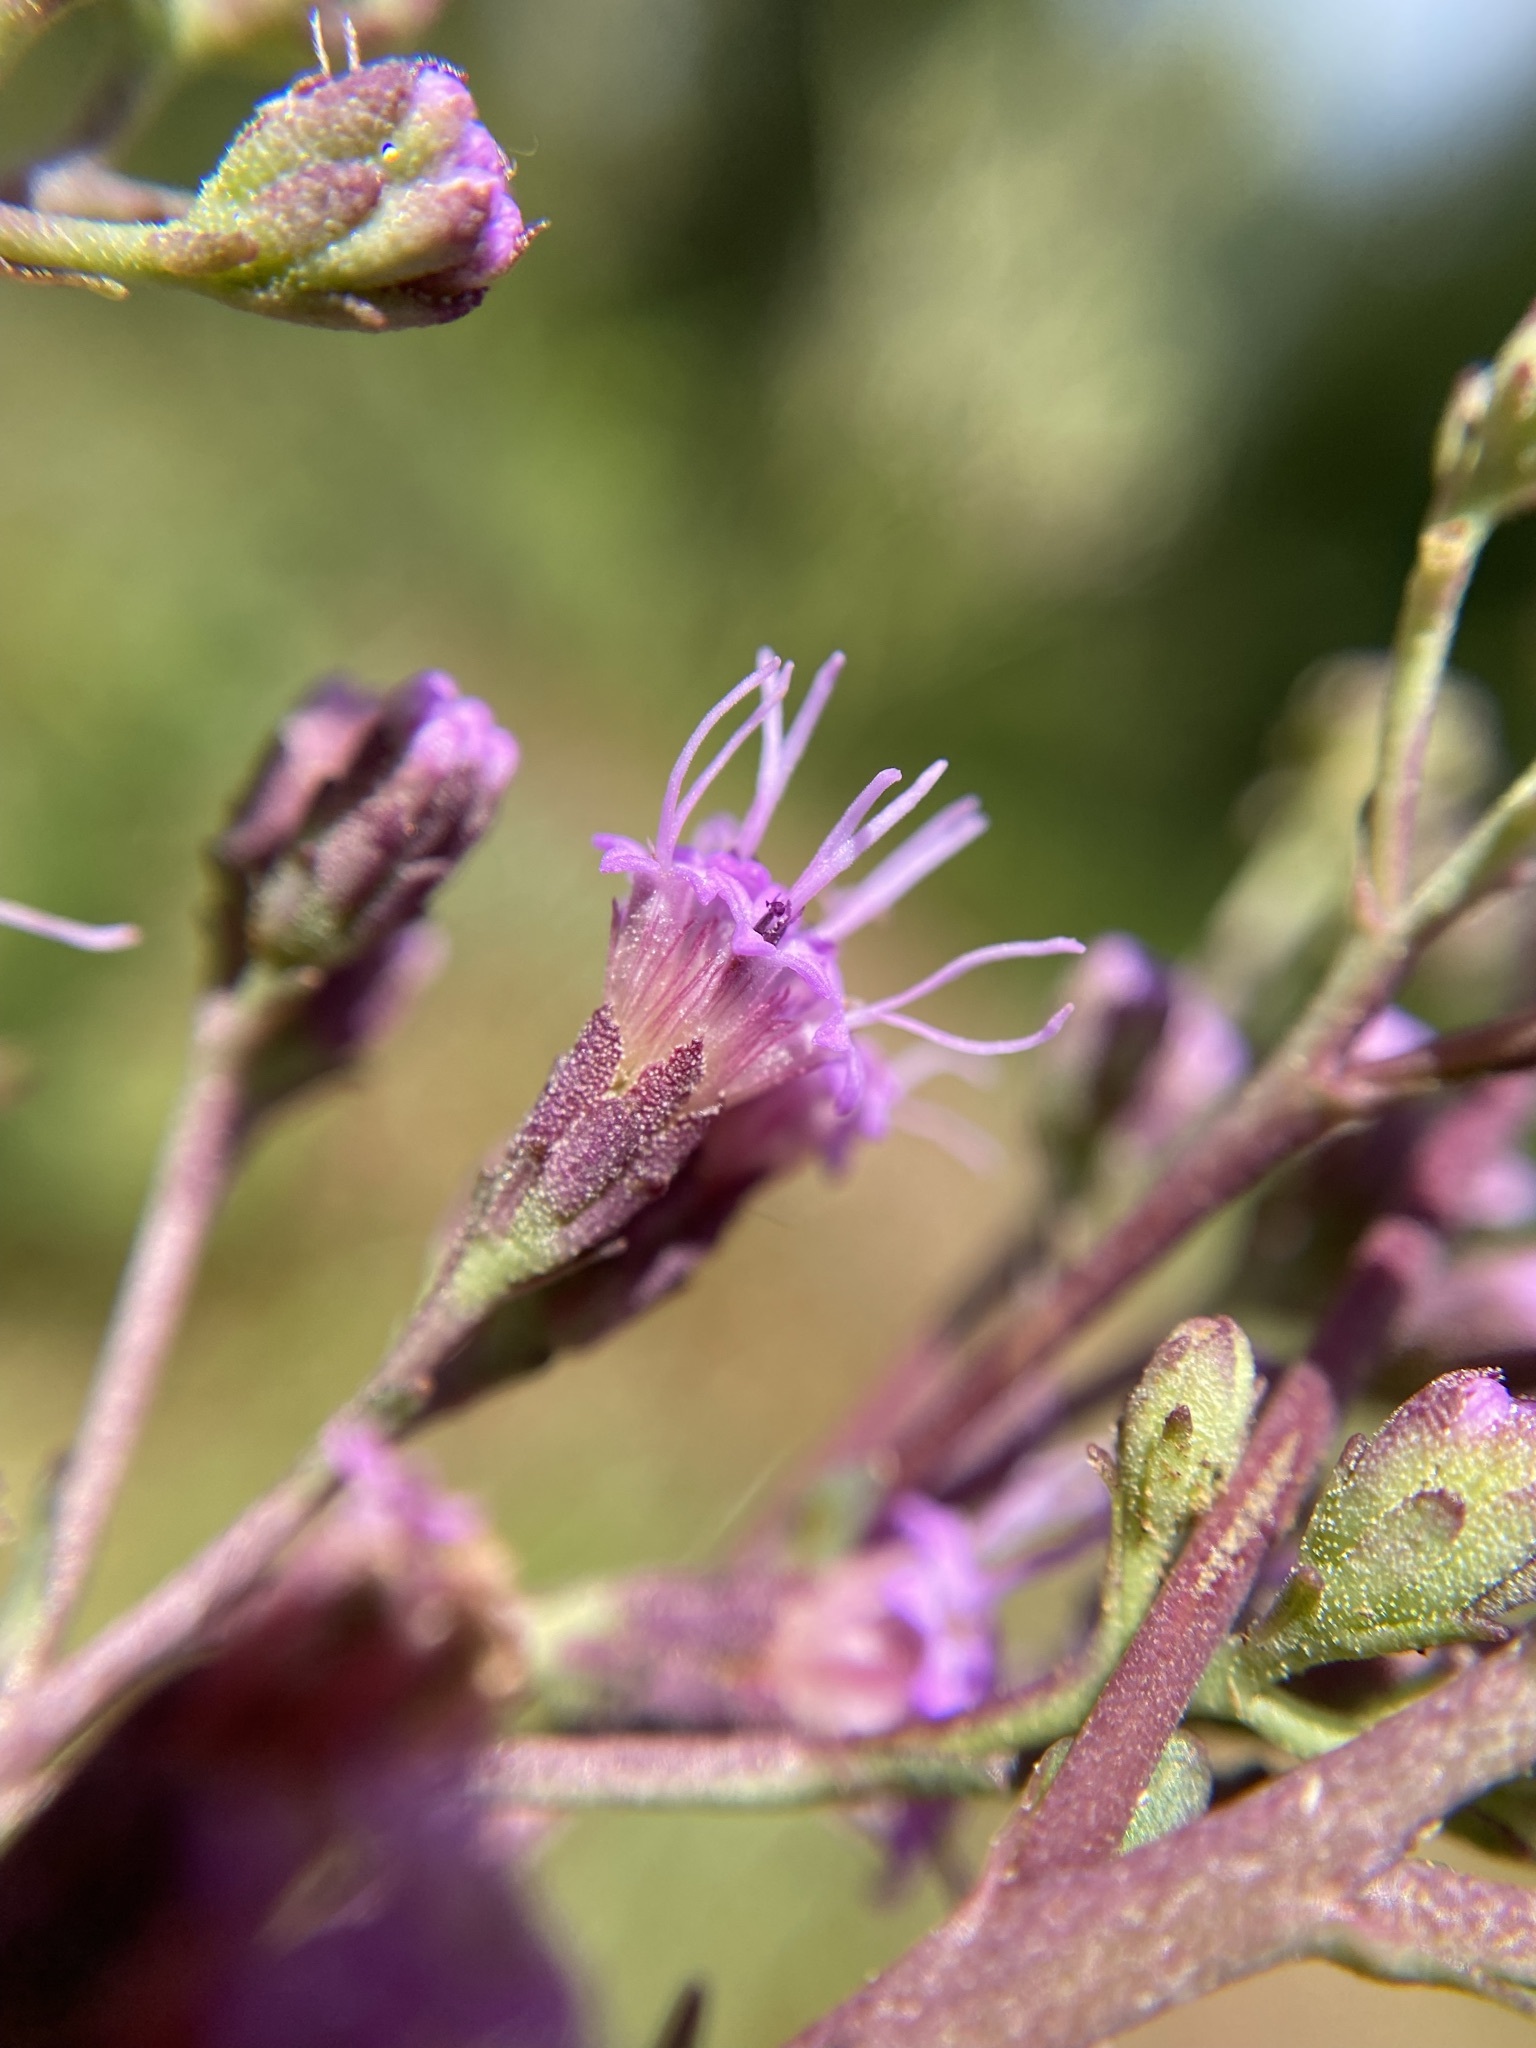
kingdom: Plantae
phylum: Tracheophyta
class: Magnoliopsida
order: Asterales
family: Asteraceae
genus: Carphephorus
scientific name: Carphephorus odoratissimus
